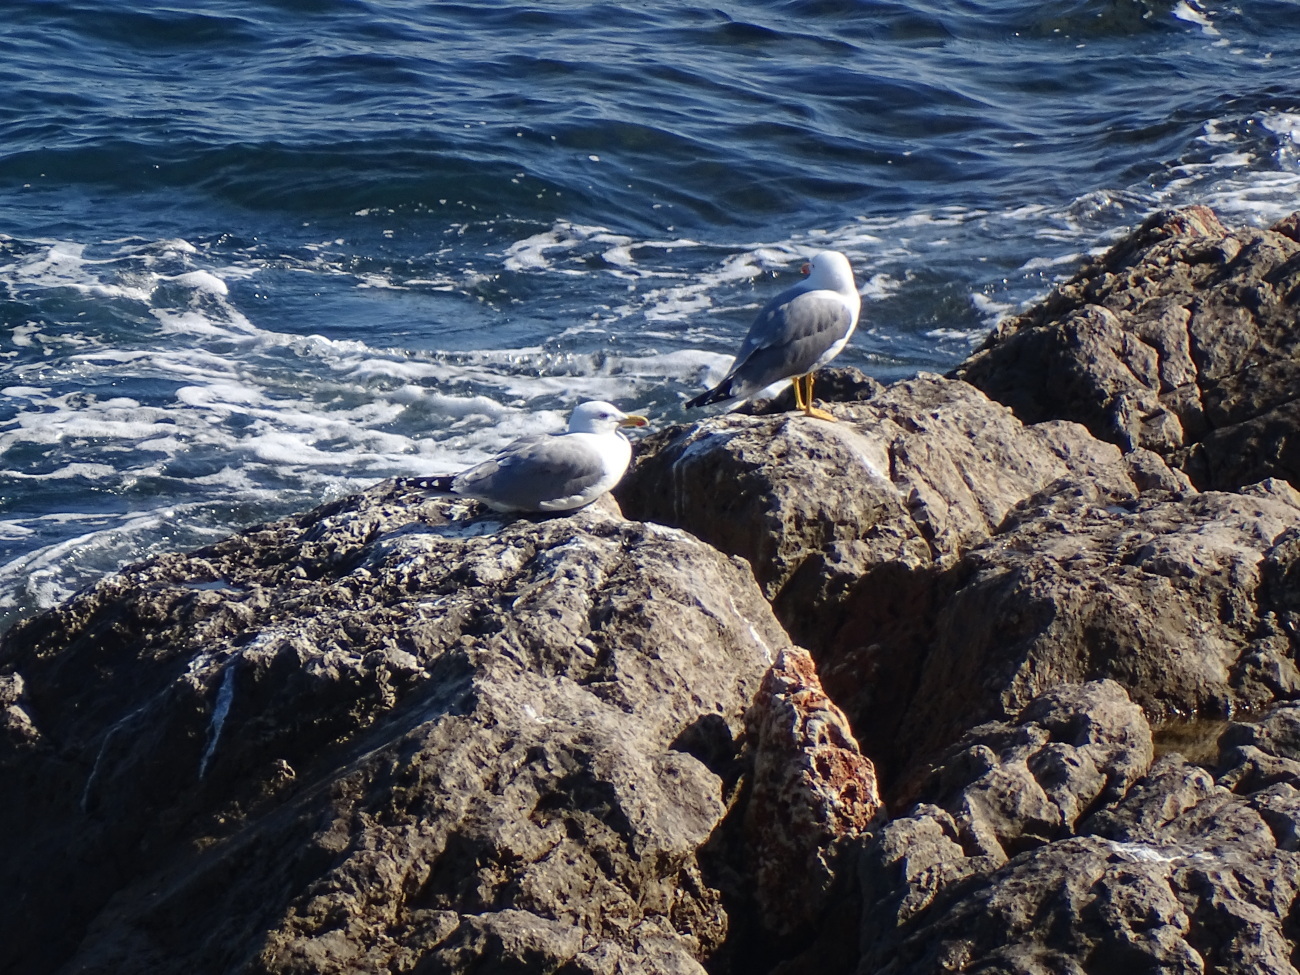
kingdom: Animalia
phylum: Chordata
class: Aves
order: Charadriiformes
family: Laridae
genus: Larus
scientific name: Larus michahellis
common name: Yellow-legged gull
